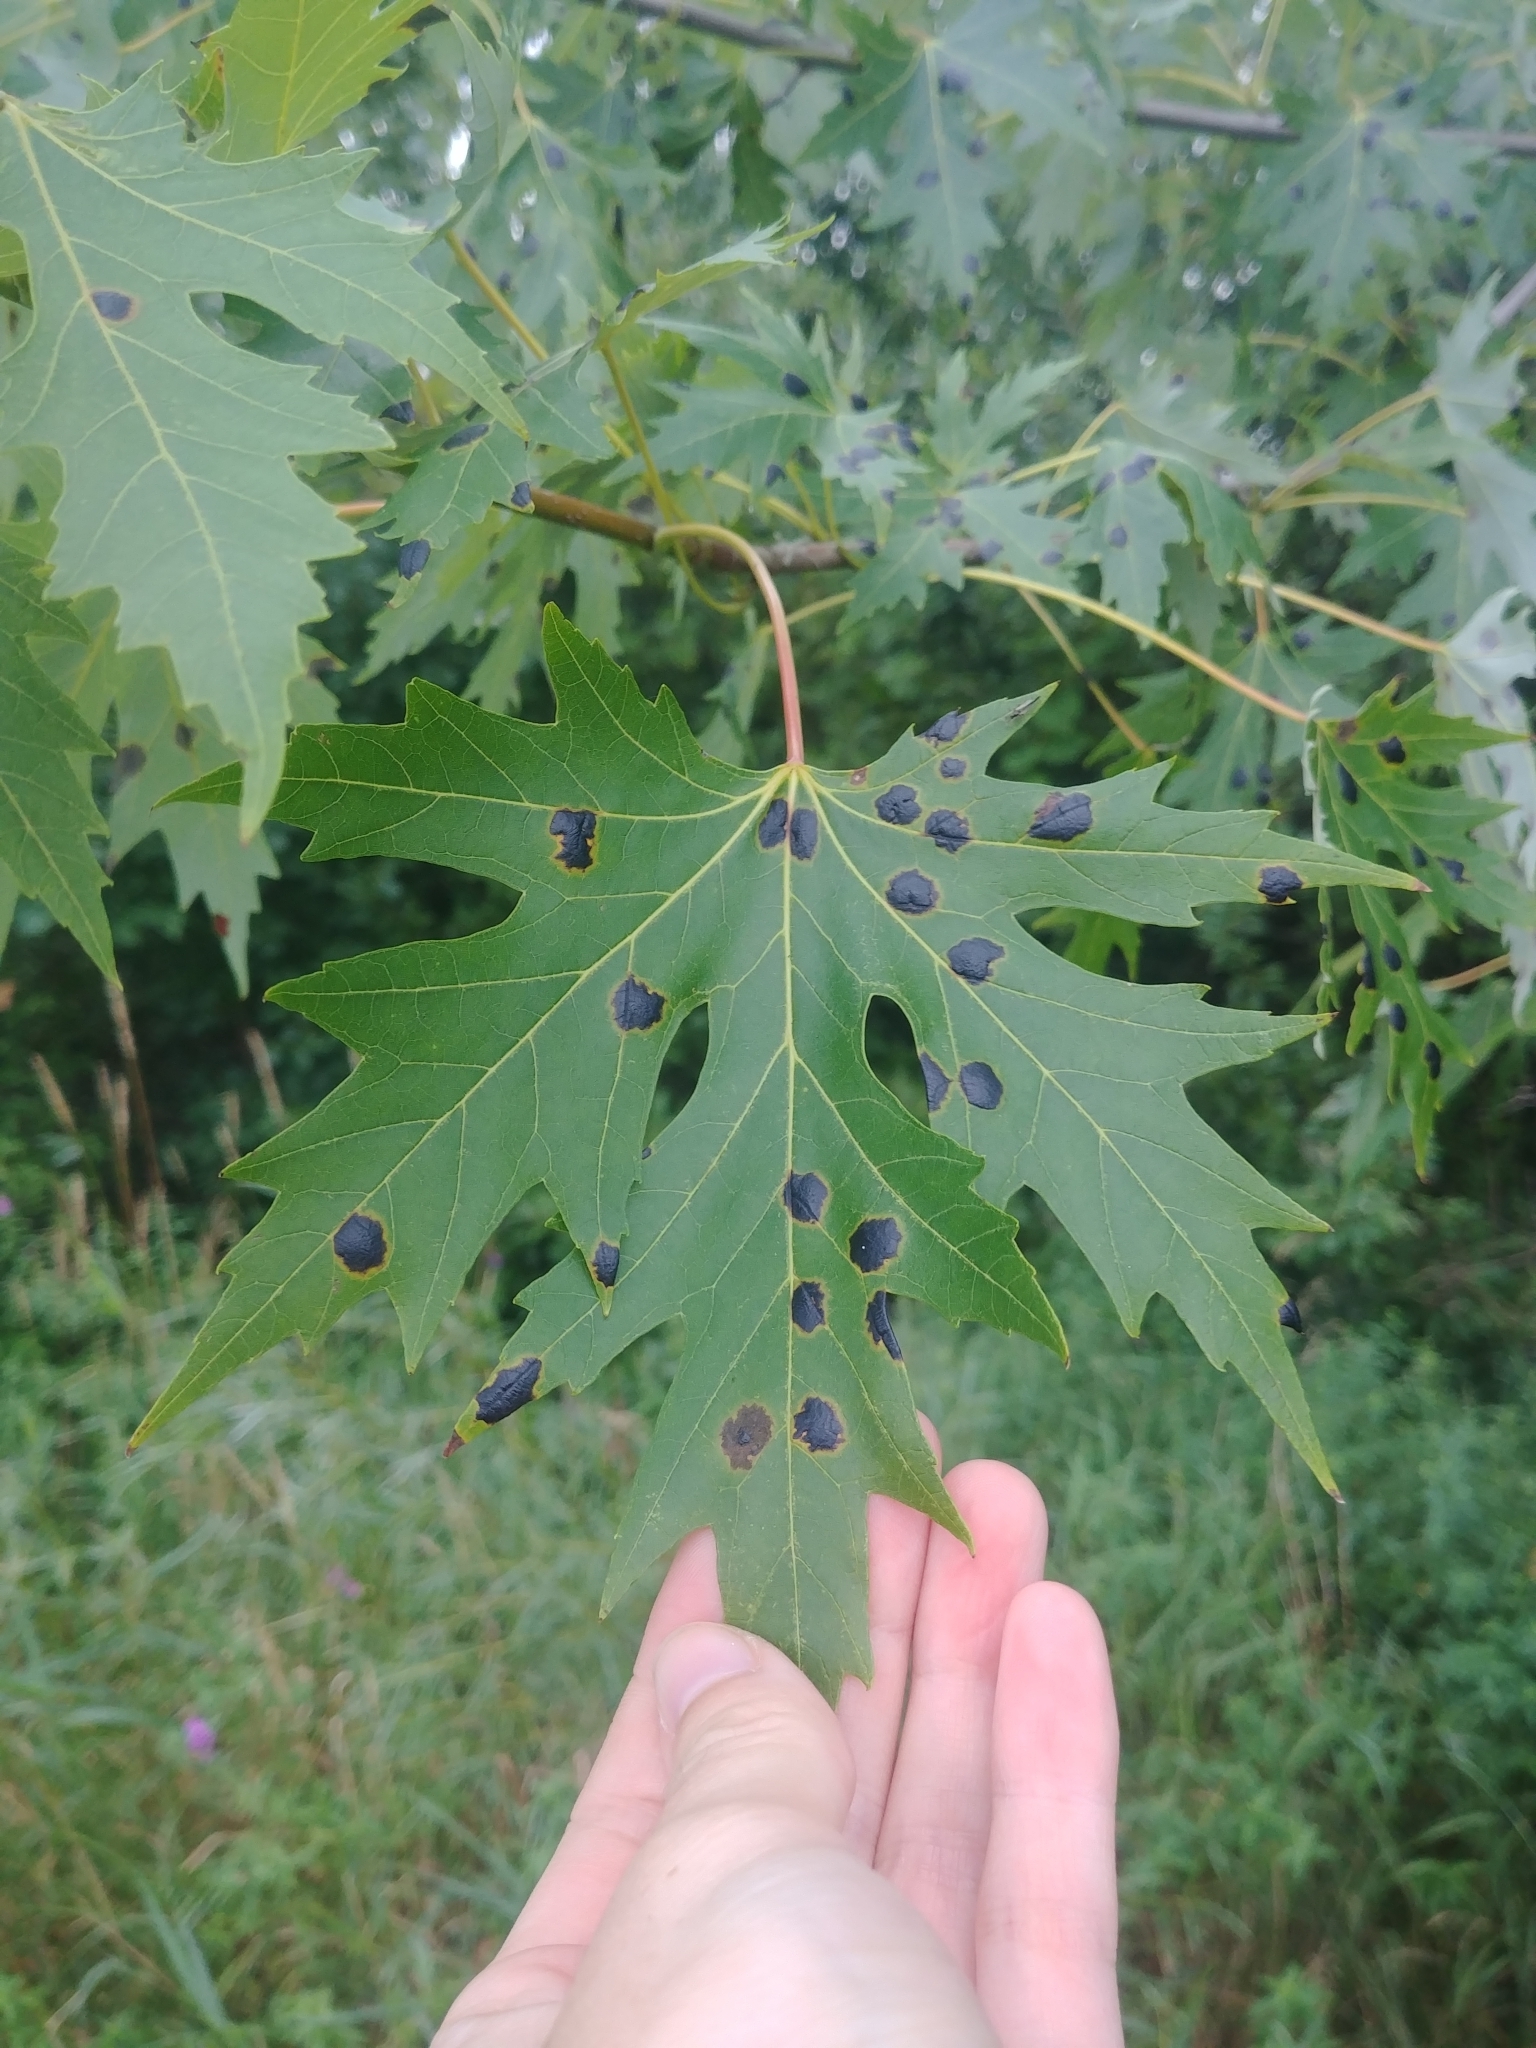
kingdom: Plantae
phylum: Tracheophyta
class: Magnoliopsida
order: Sapindales
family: Sapindaceae
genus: Acer
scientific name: Acer saccharinum
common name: Silver maple
